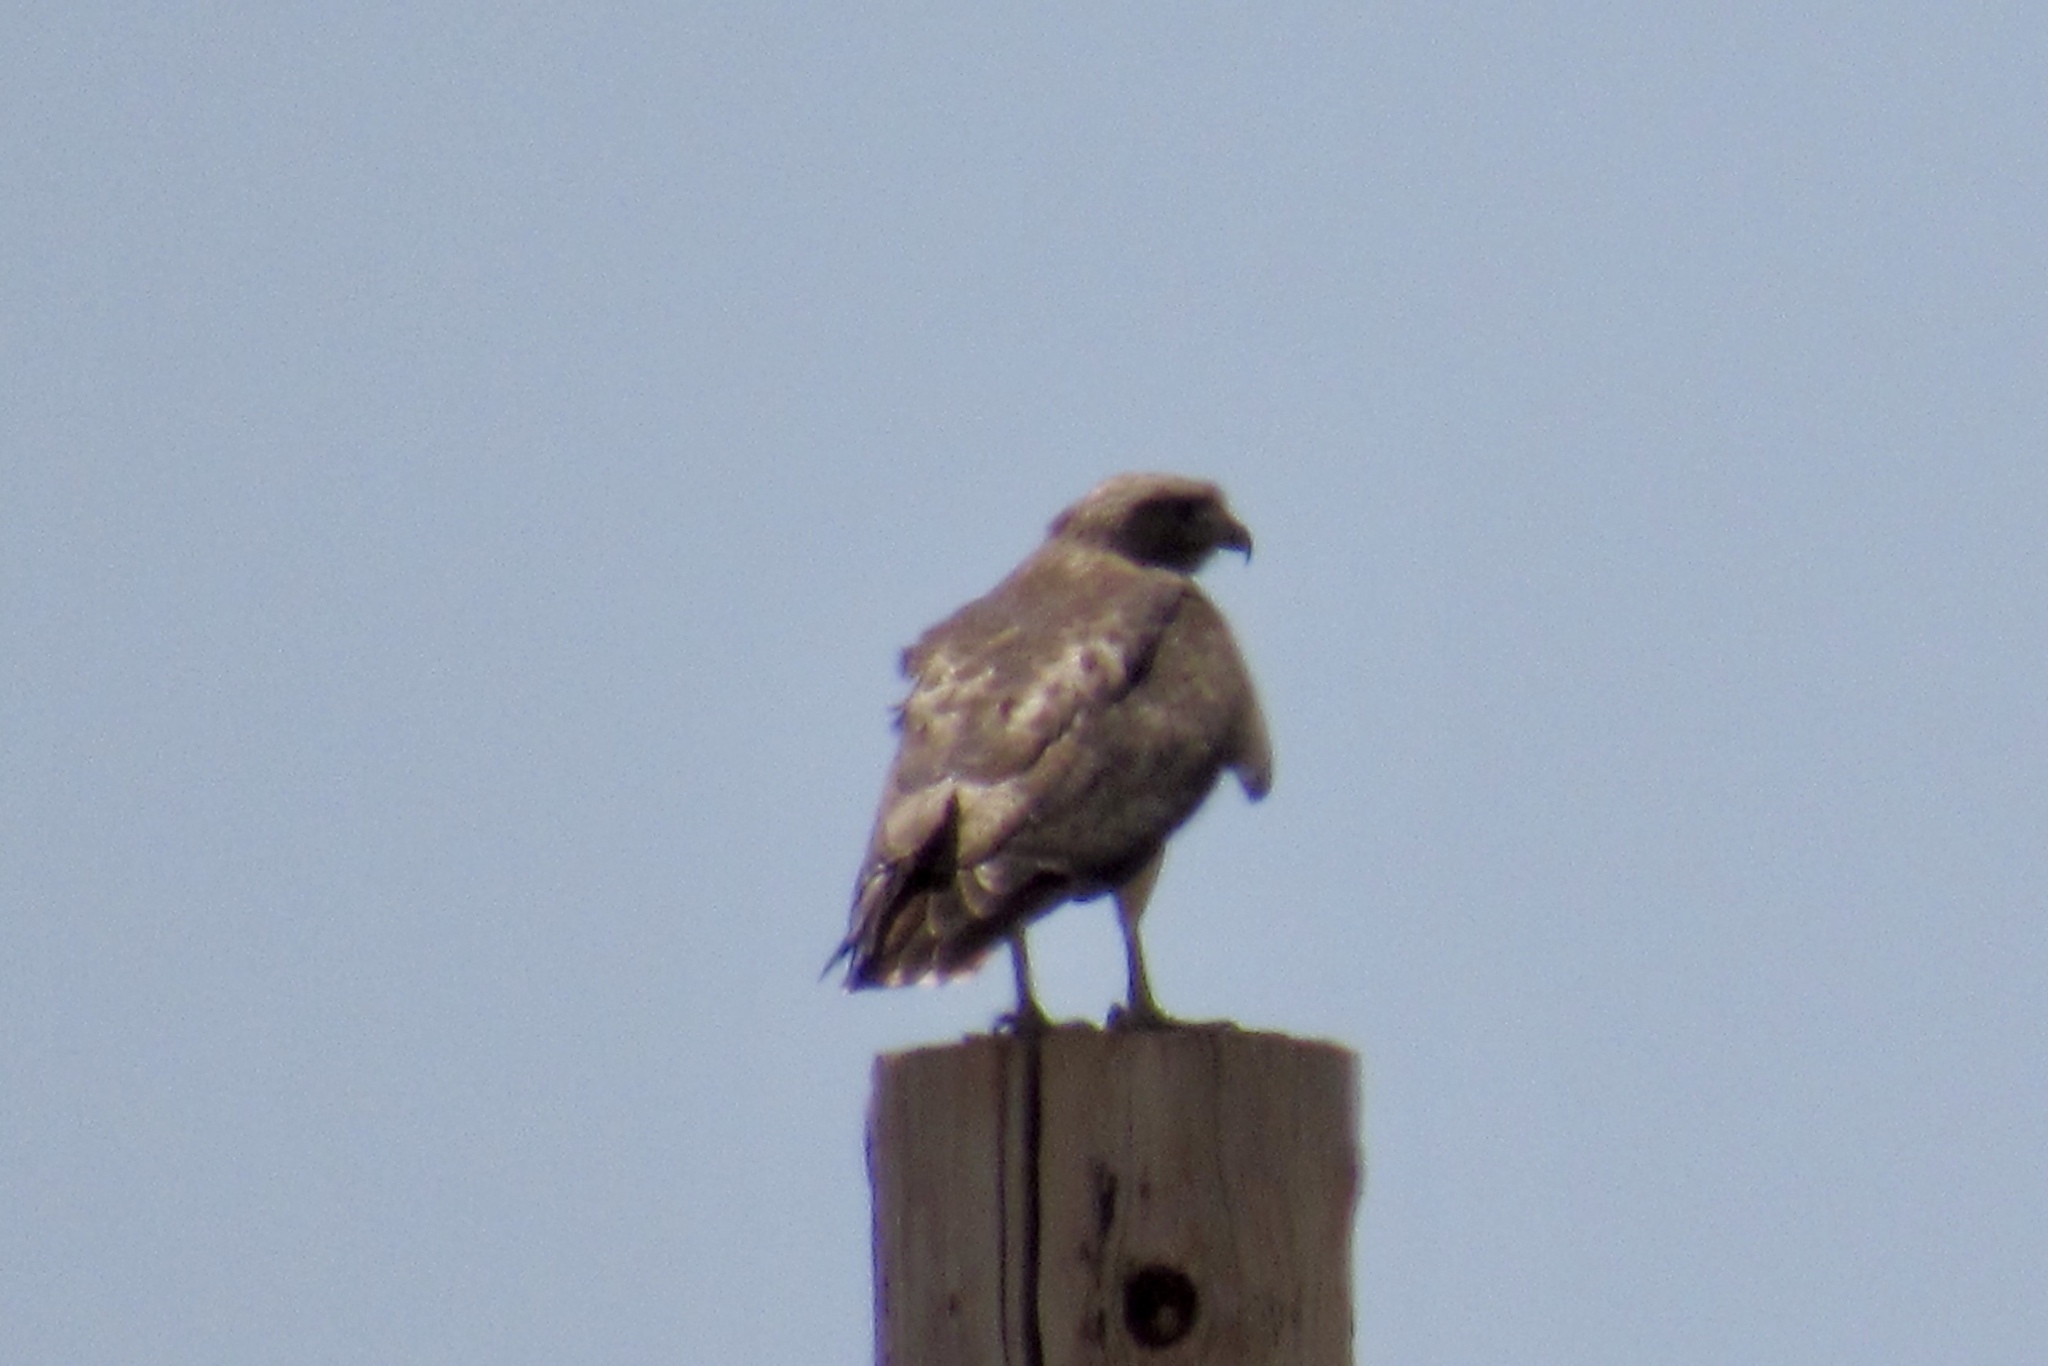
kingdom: Animalia
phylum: Chordata
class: Aves
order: Accipitriformes
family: Accipitridae
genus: Buteo
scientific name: Buteo jamaicensis
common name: Red-tailed hawk
